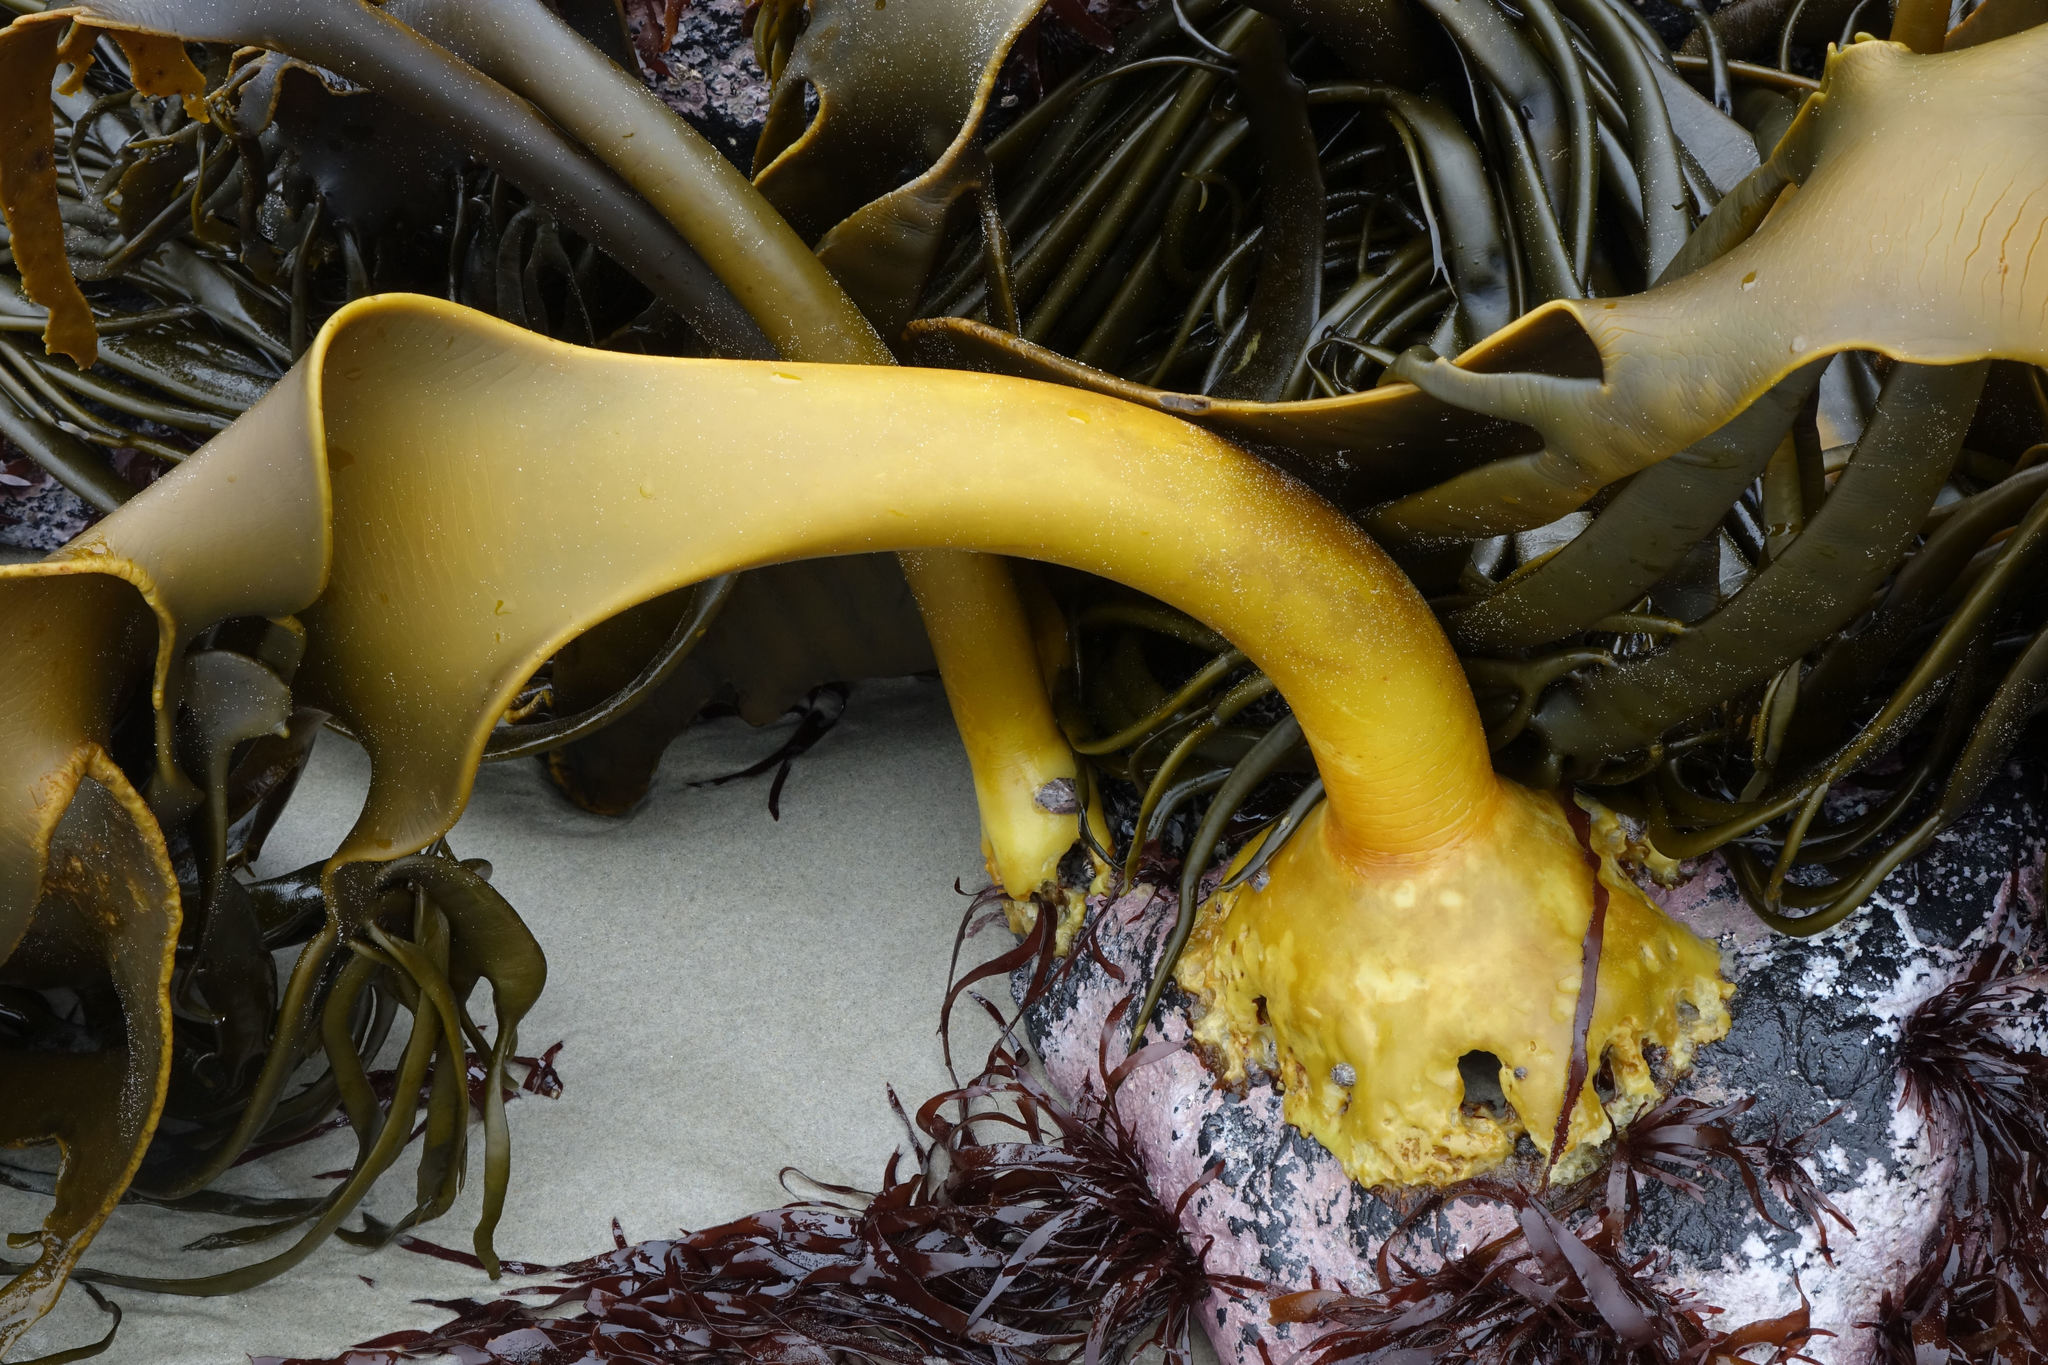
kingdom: Chromista
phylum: Ochrophyta
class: Phaeophyceae
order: Fucales
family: Durvillaeaceae
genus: Durvillaea
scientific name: Durvillaea antarctica
